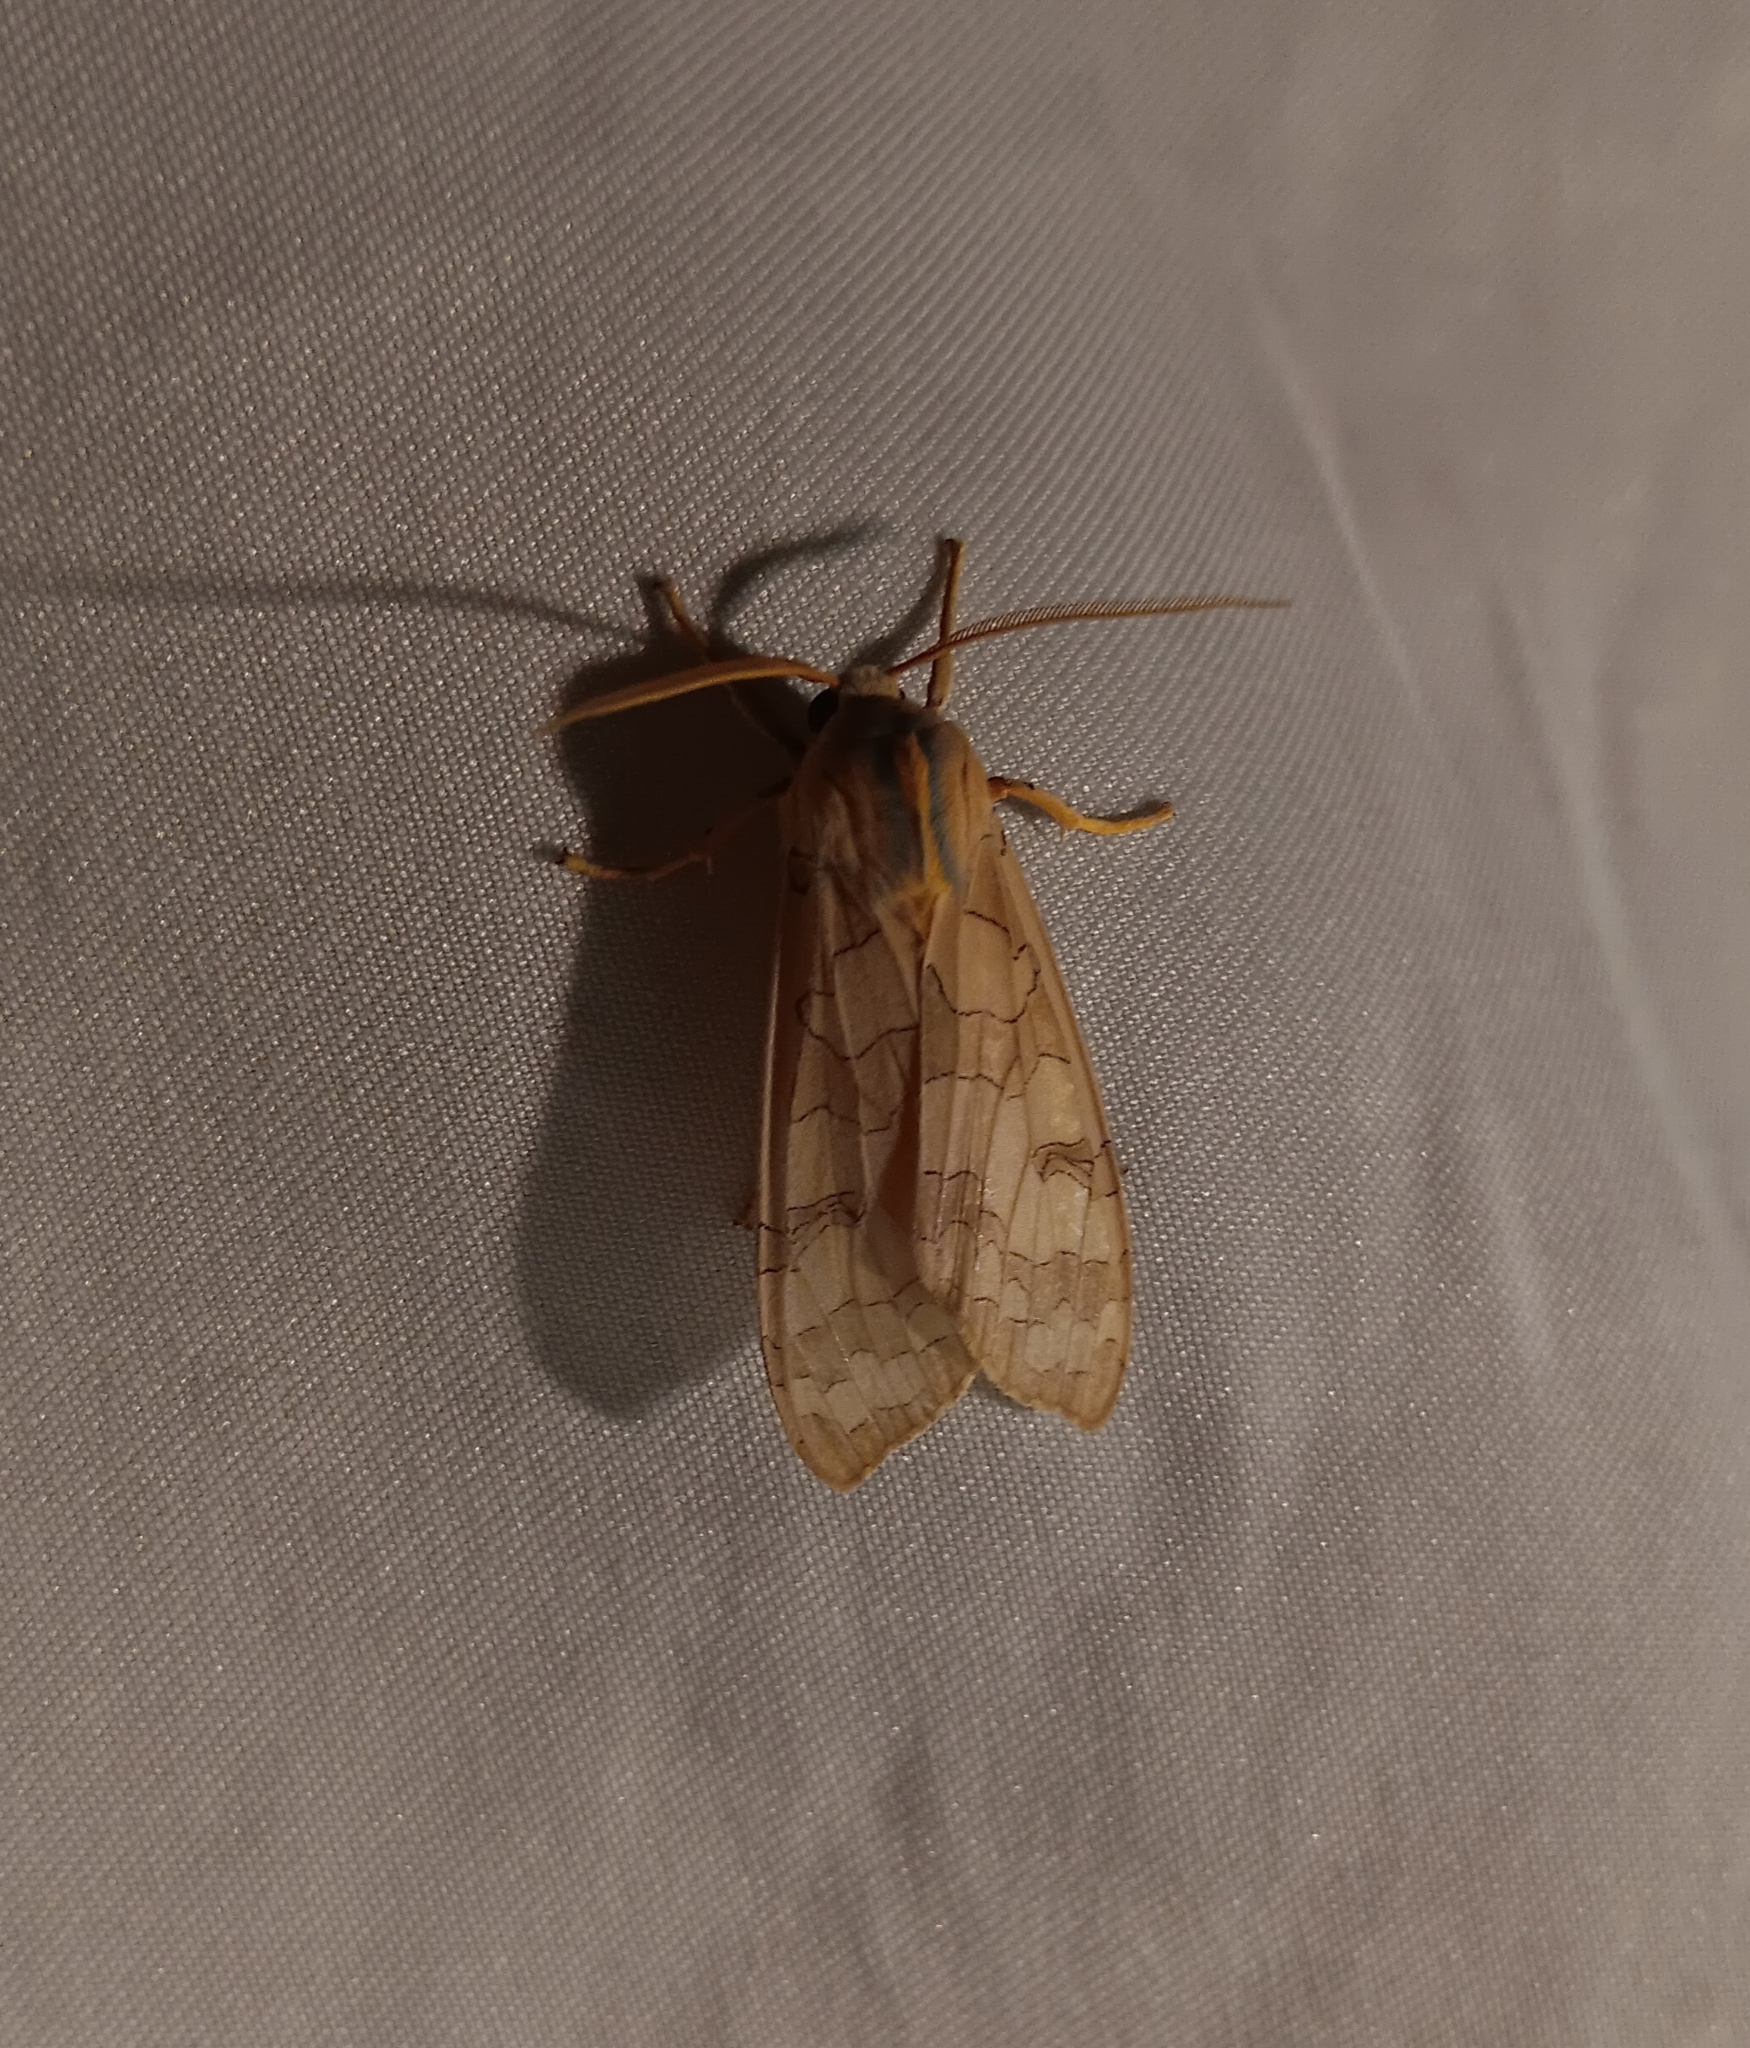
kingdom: Animalia
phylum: Arthropoda
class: Insecta
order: Lepidoptera
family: Erebidae
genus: Halysidota
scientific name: Halysidota
